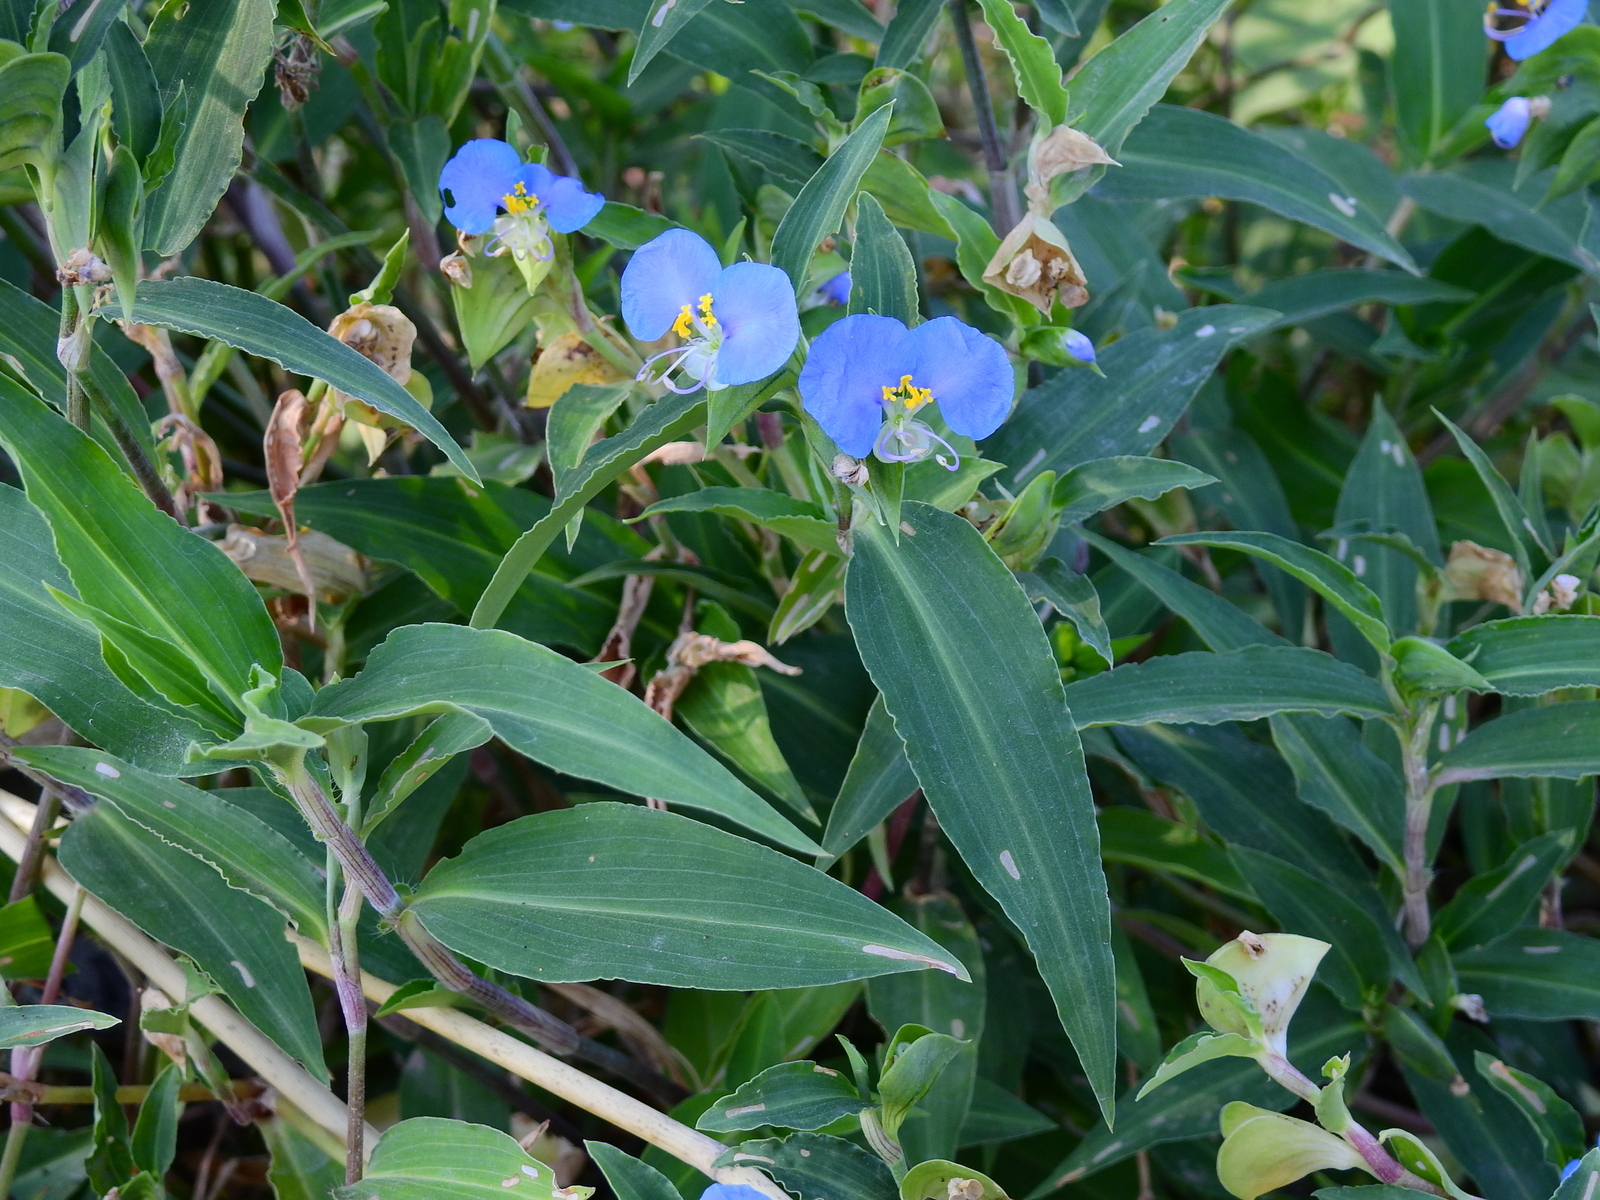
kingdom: Plantae
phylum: Tracheophyta
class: Liliopsida
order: Commelinales
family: Commelinaceae
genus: Commelina
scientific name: Commelina erecta
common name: Blousel blommetjie
